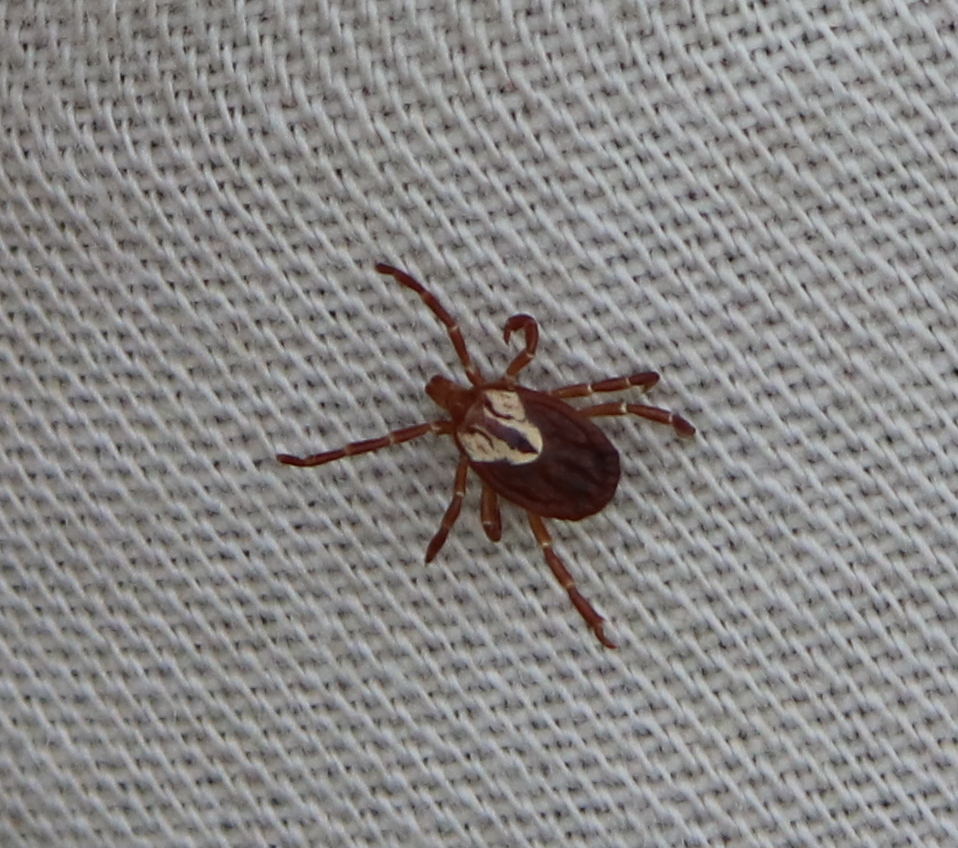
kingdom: Animalia
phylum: Arthropoda
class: Arachnida
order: Ixodida
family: Ixodidae
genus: Amblyomma
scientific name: Amblyomma maculatum
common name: Gulf coast tick
